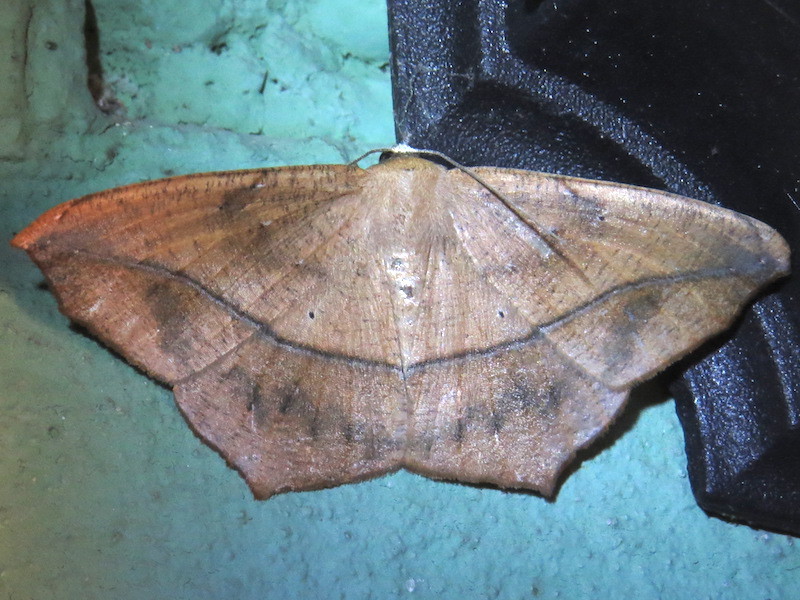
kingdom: Animalia
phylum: Arthropoda
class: Insecta
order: Lepidoptera
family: Geometridae
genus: Prochoerodes
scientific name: Prochoerodes lineola
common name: Large maple spanworm
